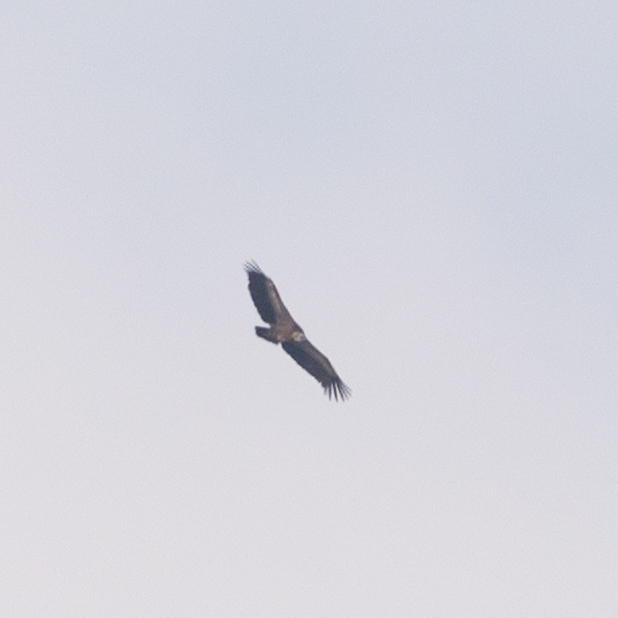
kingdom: Animalia
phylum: Chordata
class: Aves
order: Accipitriformes
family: Accipitridae
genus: Gyps
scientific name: Gyps fulvus
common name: Griffon vulture
